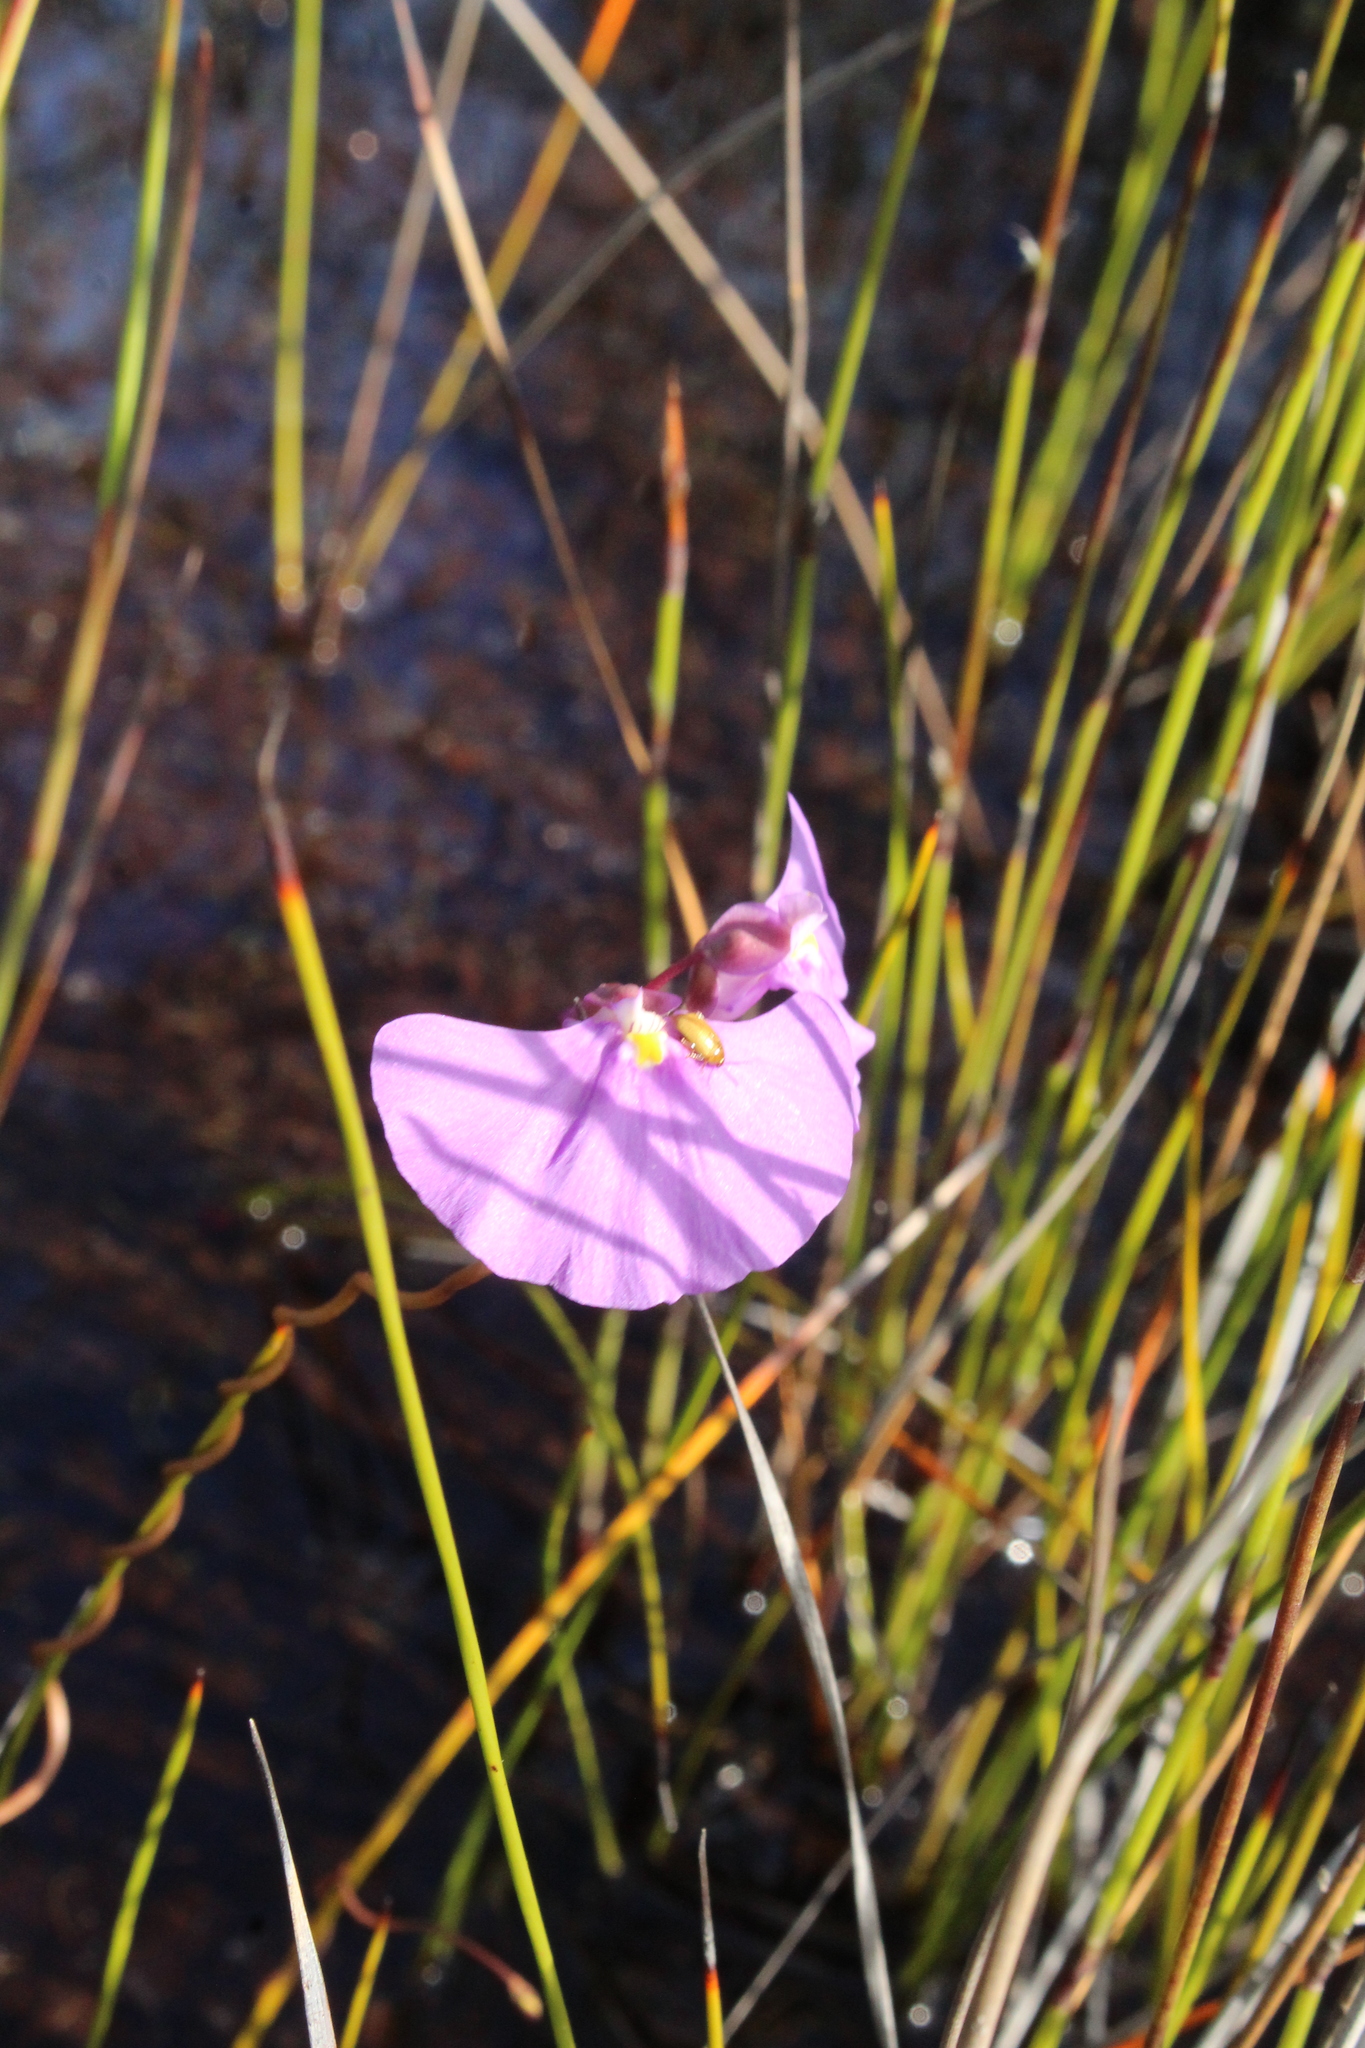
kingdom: Plantae
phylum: Tracheophyta
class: Magnoliopsida
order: Lamiales
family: Lentibulariaceae
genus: Utricularia
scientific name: Utricularia volubilis
